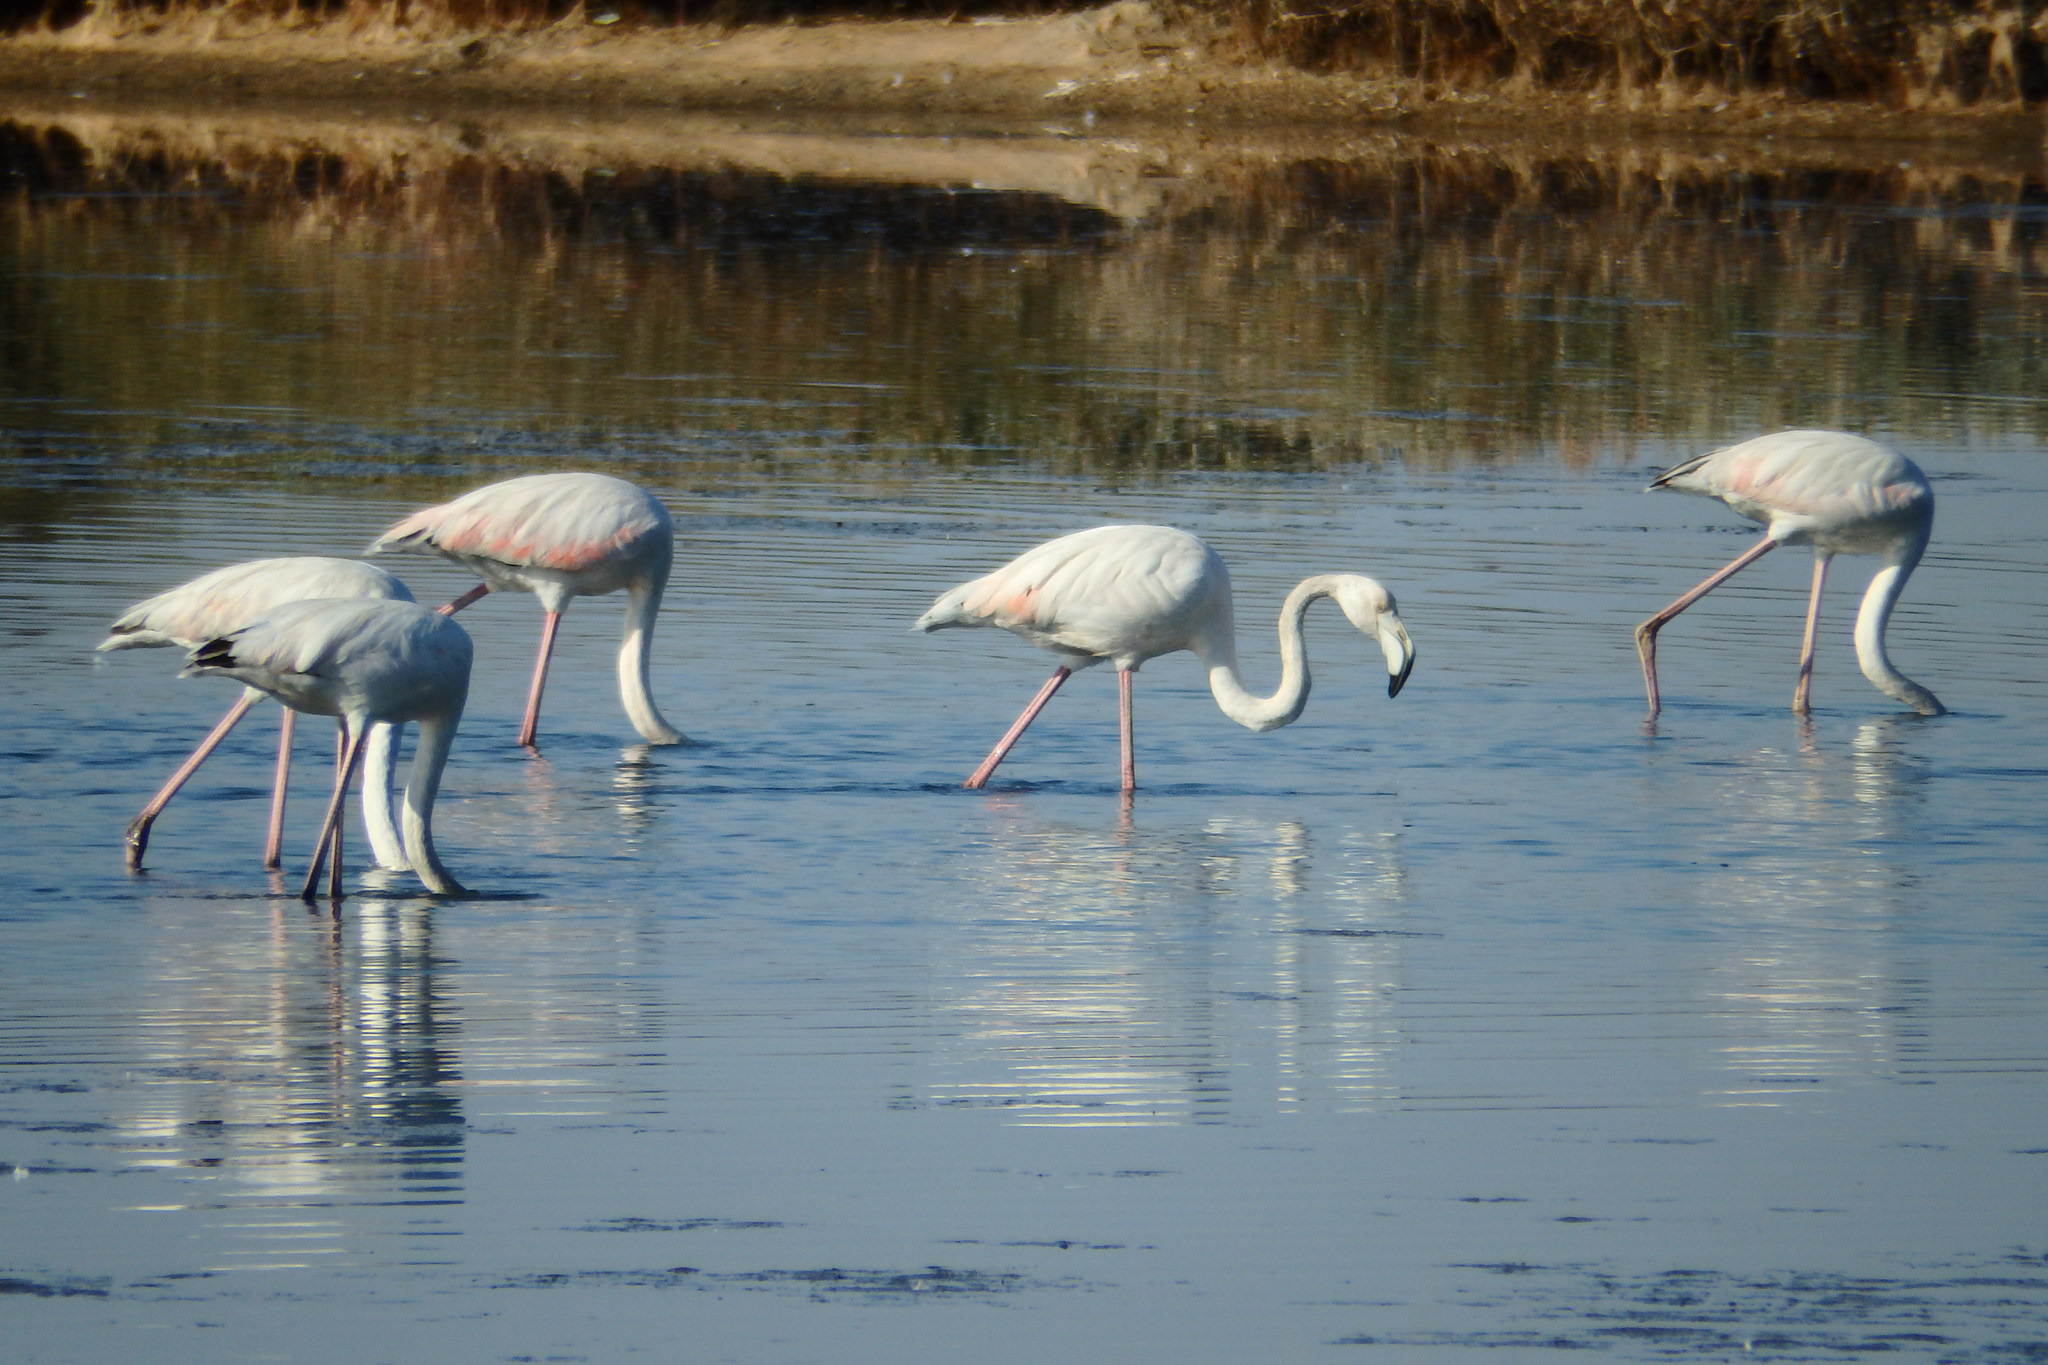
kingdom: Animalia
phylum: Chordata
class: Aves
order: Phoenicopteriformes
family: Phoenicopteridae
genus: Phoenicopterus
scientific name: Phoenicopterus roseus
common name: Greater flamingo
